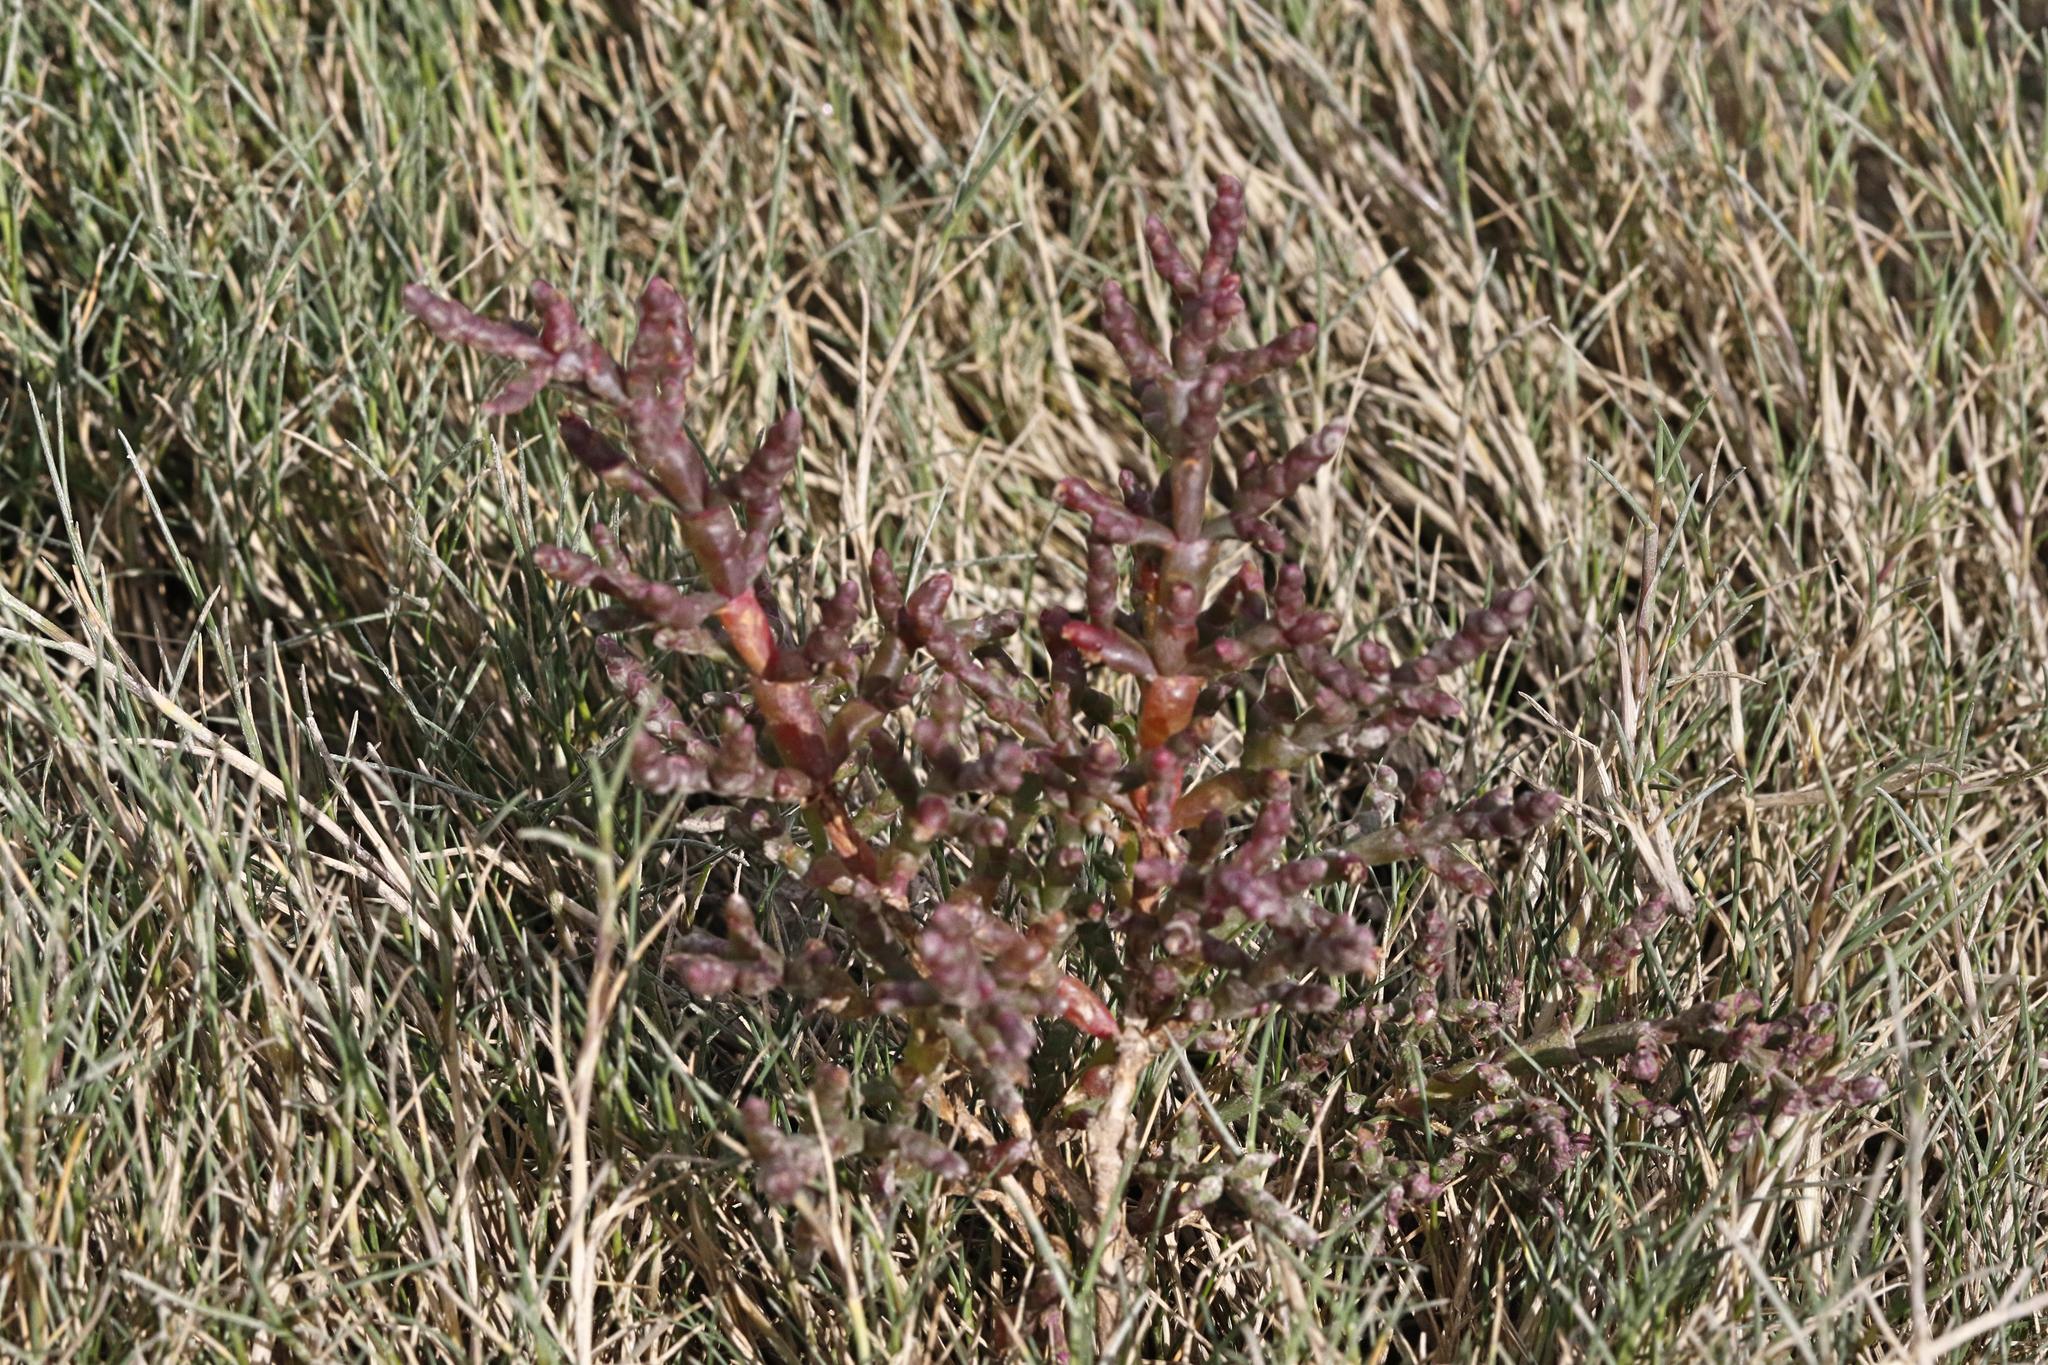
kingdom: Plantae
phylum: Tracheophyta
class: Magnoliopsida
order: Caryophyllales
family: Amaranthaceae
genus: Salicornia
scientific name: Salicornia
